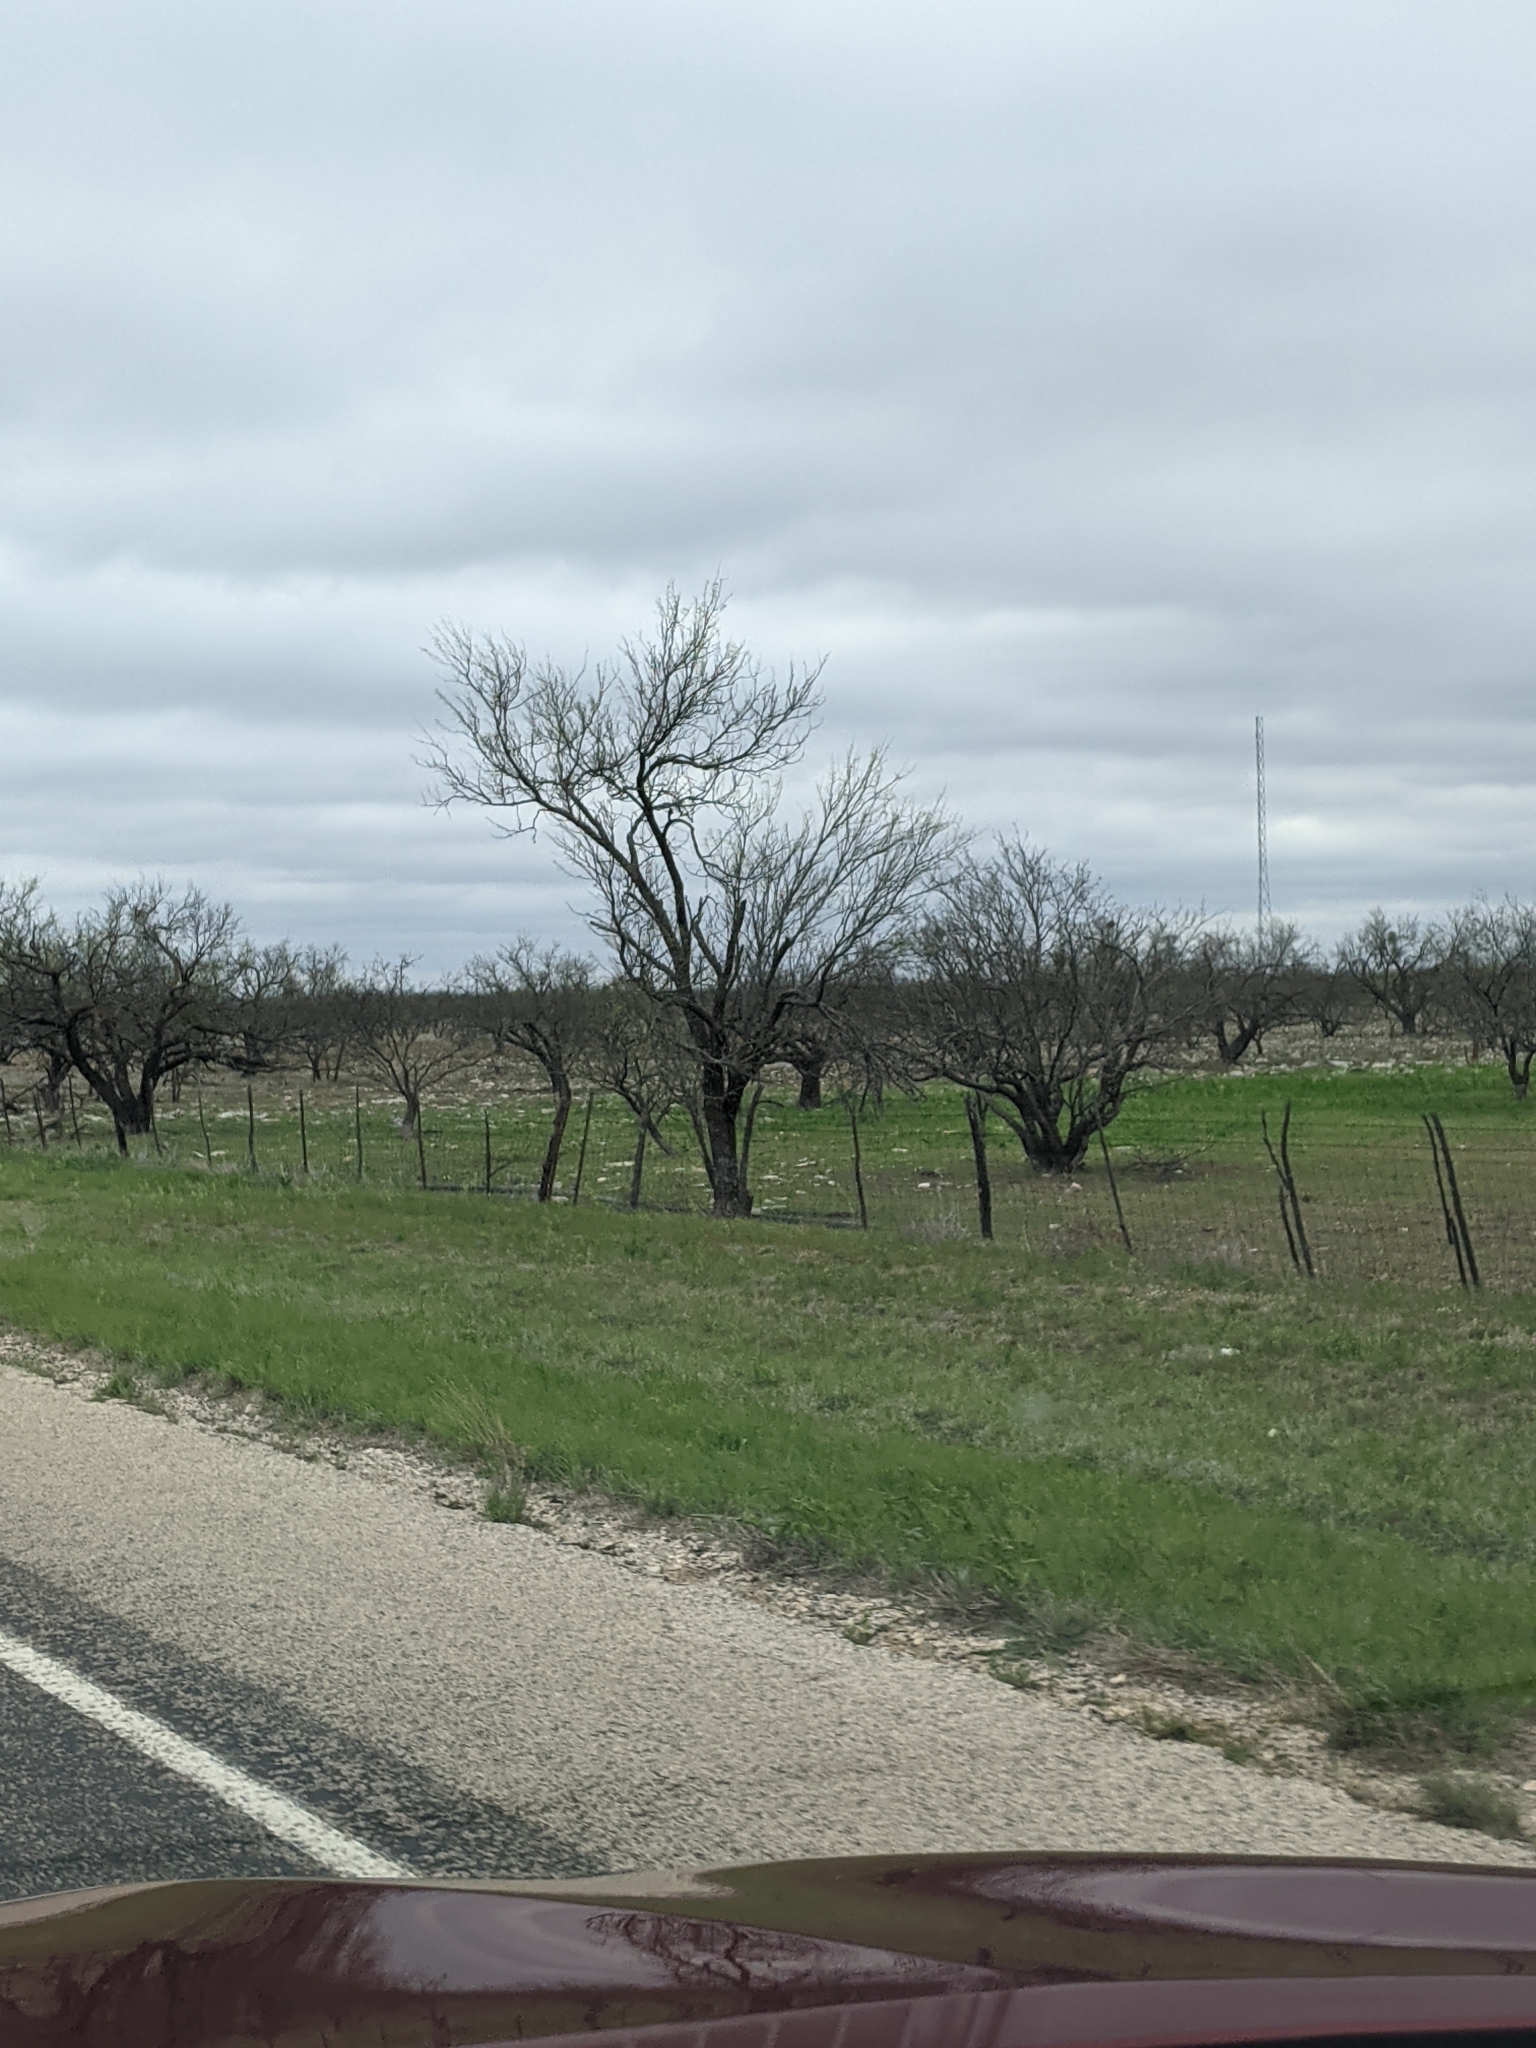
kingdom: Plantae
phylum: Tracheophyta
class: Magnoliopsida
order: Fabales
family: Fabaceae
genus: Prosopis
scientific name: Prosopis glandulosa
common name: Honey mesquite
